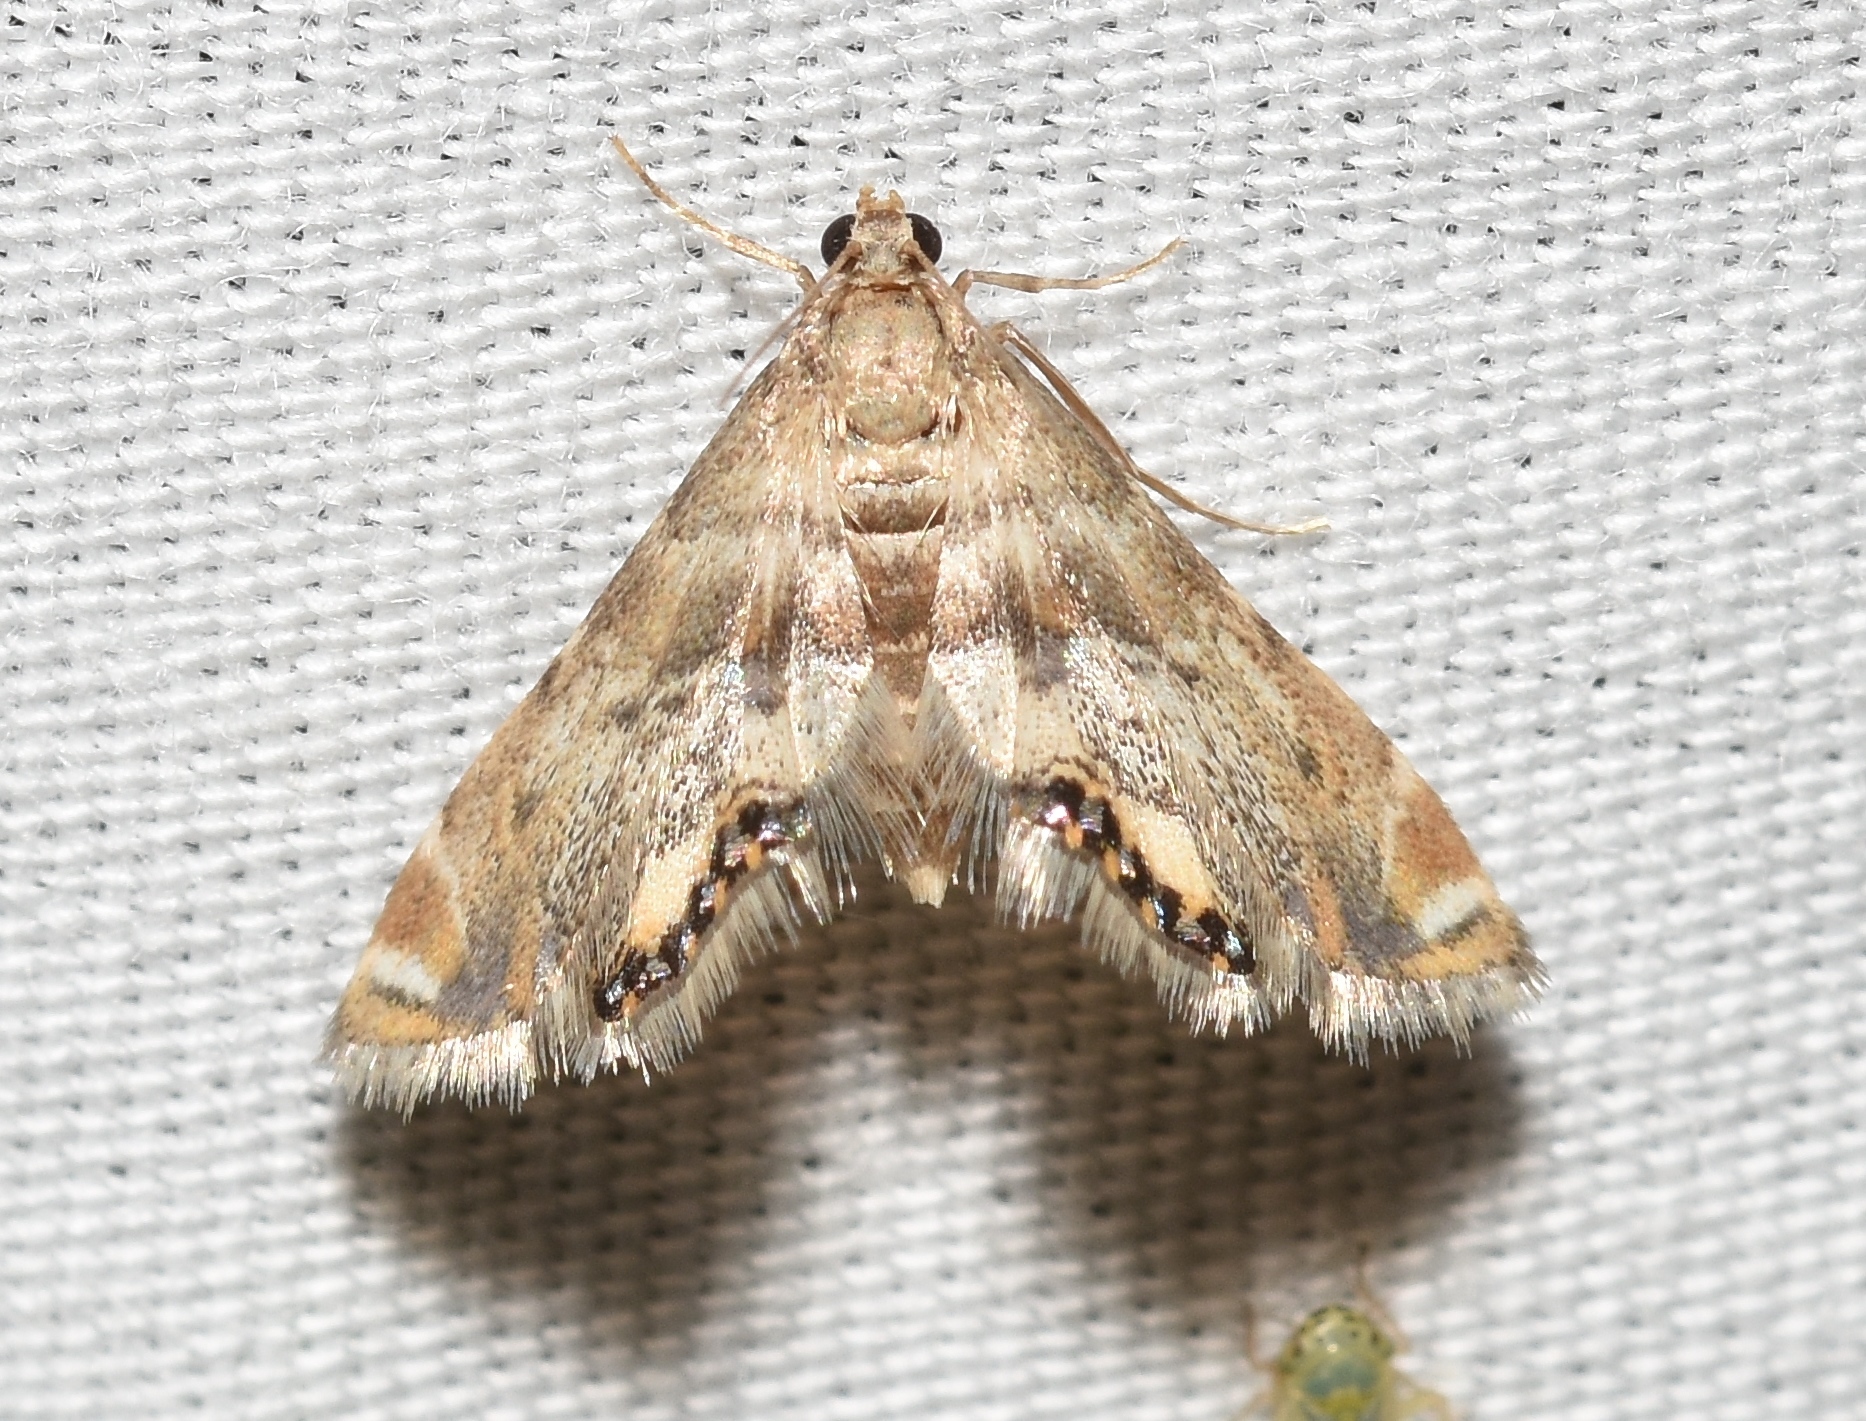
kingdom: Animalia
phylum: Arthropoda
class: Insecta
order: Lepidoptera
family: Crambidae
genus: Petrophila
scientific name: Petrophila fulicalis
